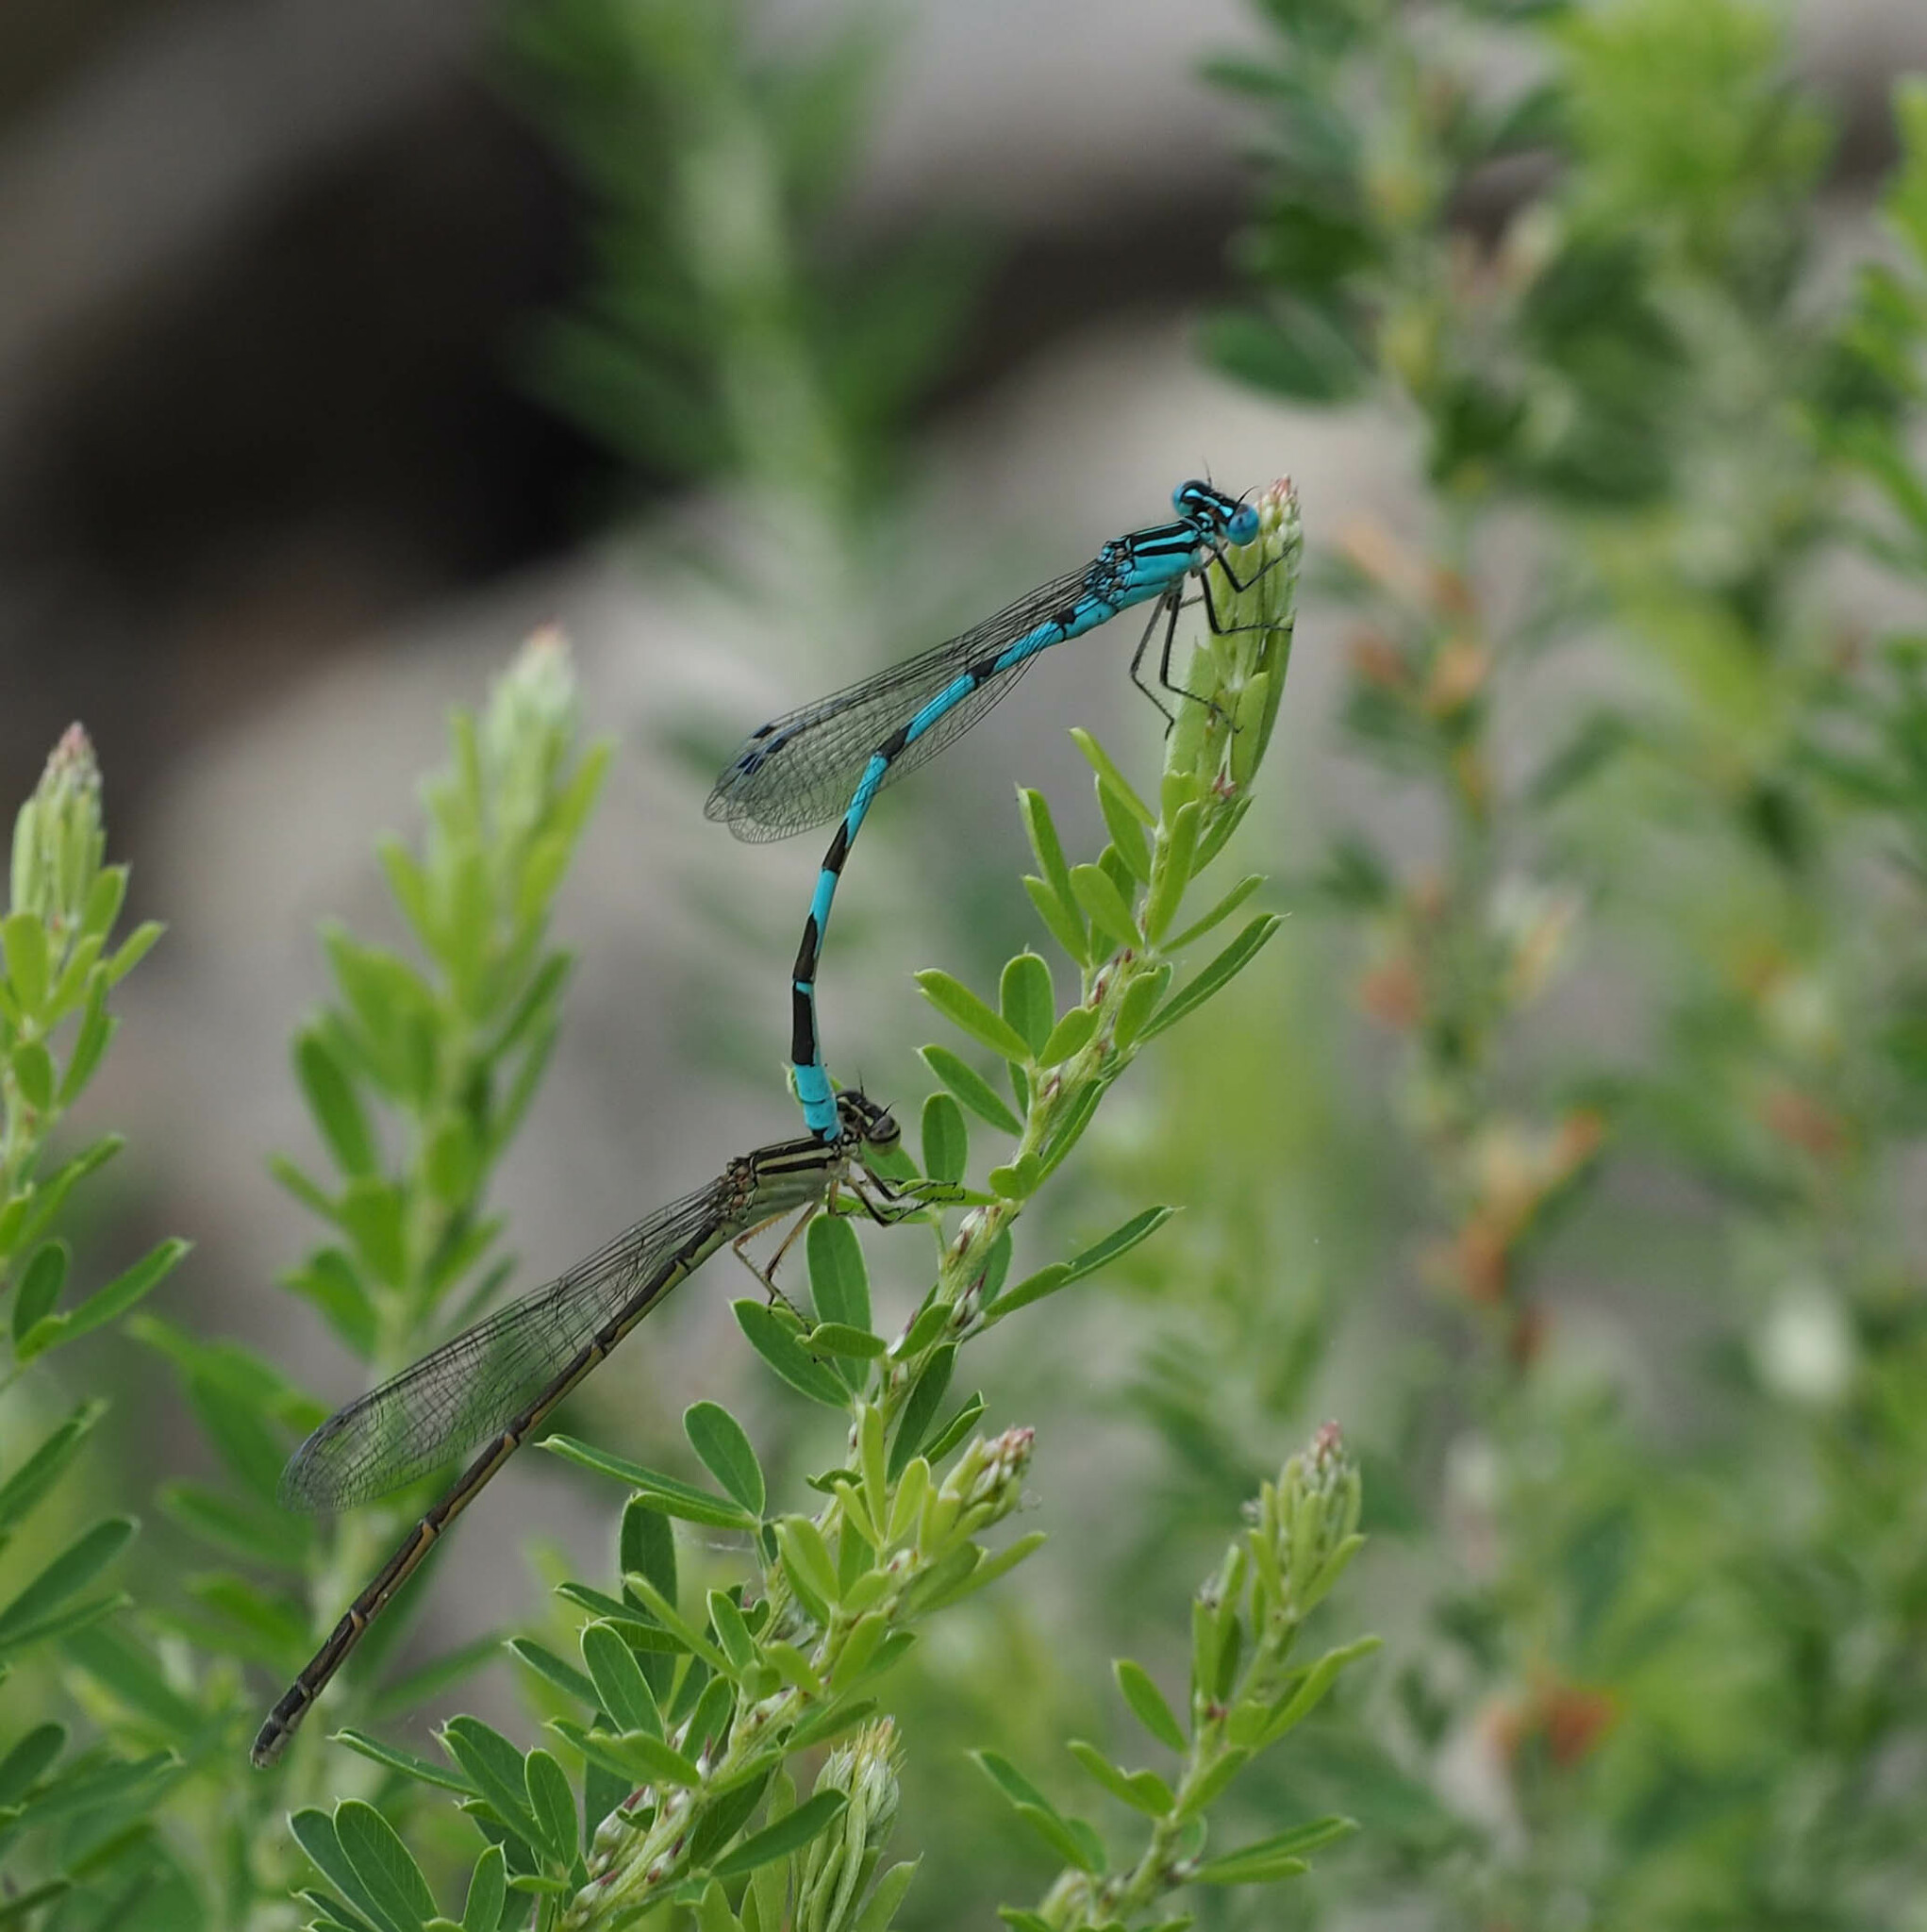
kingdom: Animalia
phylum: Arthropoda
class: Insecta
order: Odonata
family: Coenagrionidae
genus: Enallagma
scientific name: Enallagma durum
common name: Big bluet
